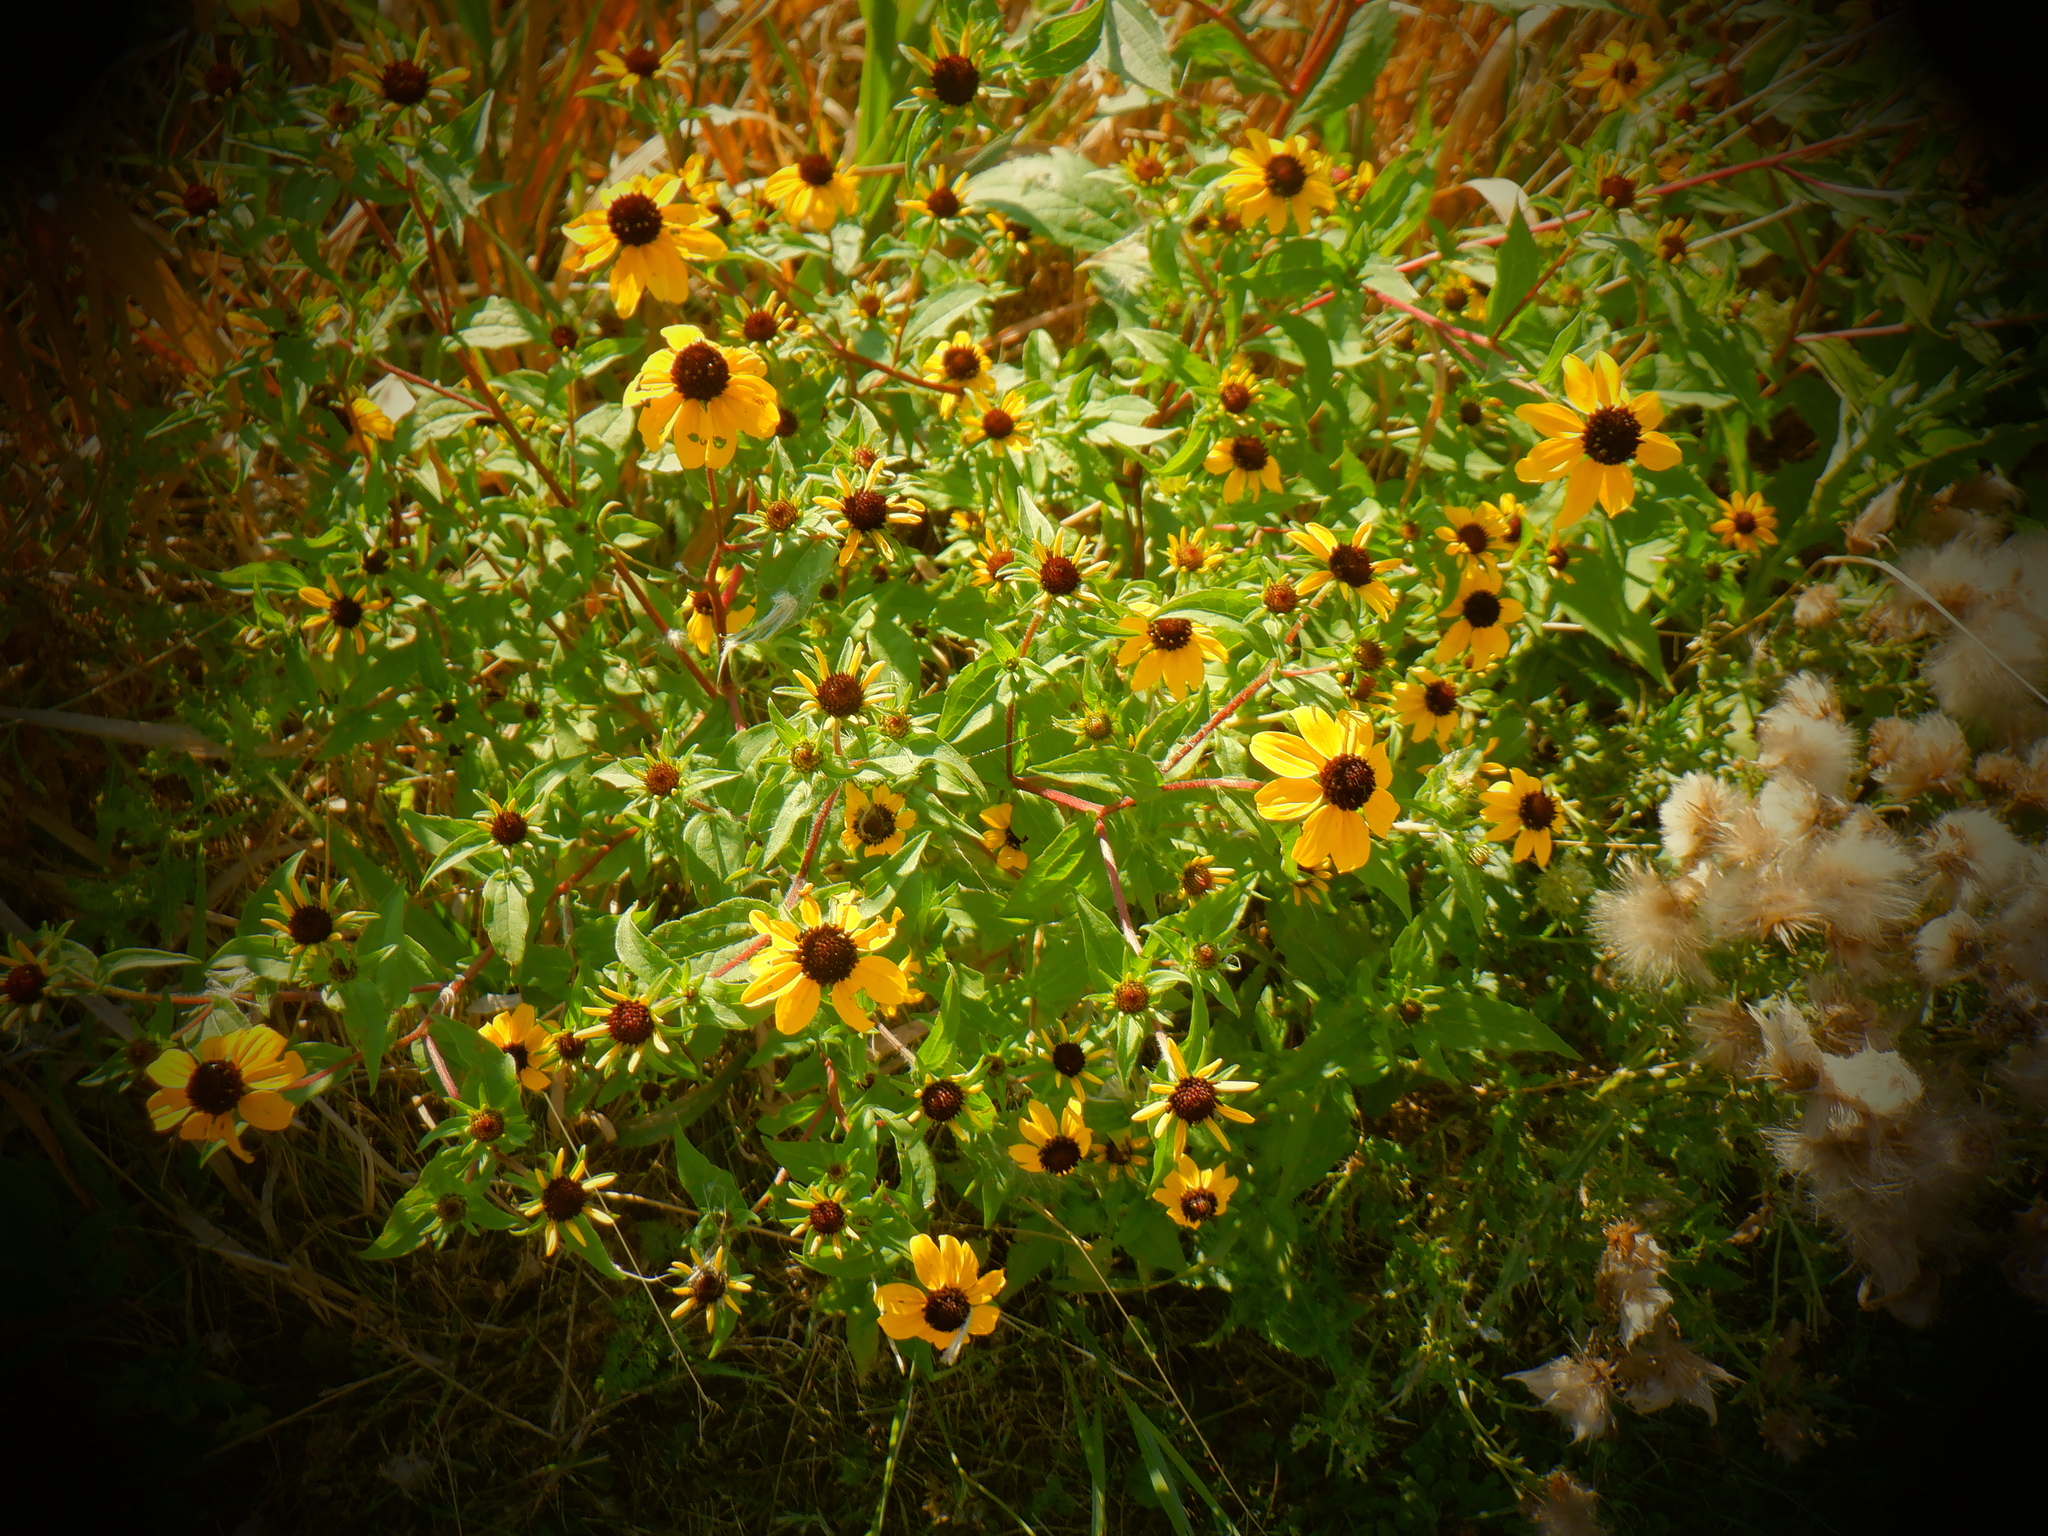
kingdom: Plantae
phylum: Tracheophyta
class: Magnoliopsida
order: Asterales
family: Asteraceae
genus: Rudbeckia
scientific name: Rudbeckia triloba
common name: Thin-leaved coneflower
